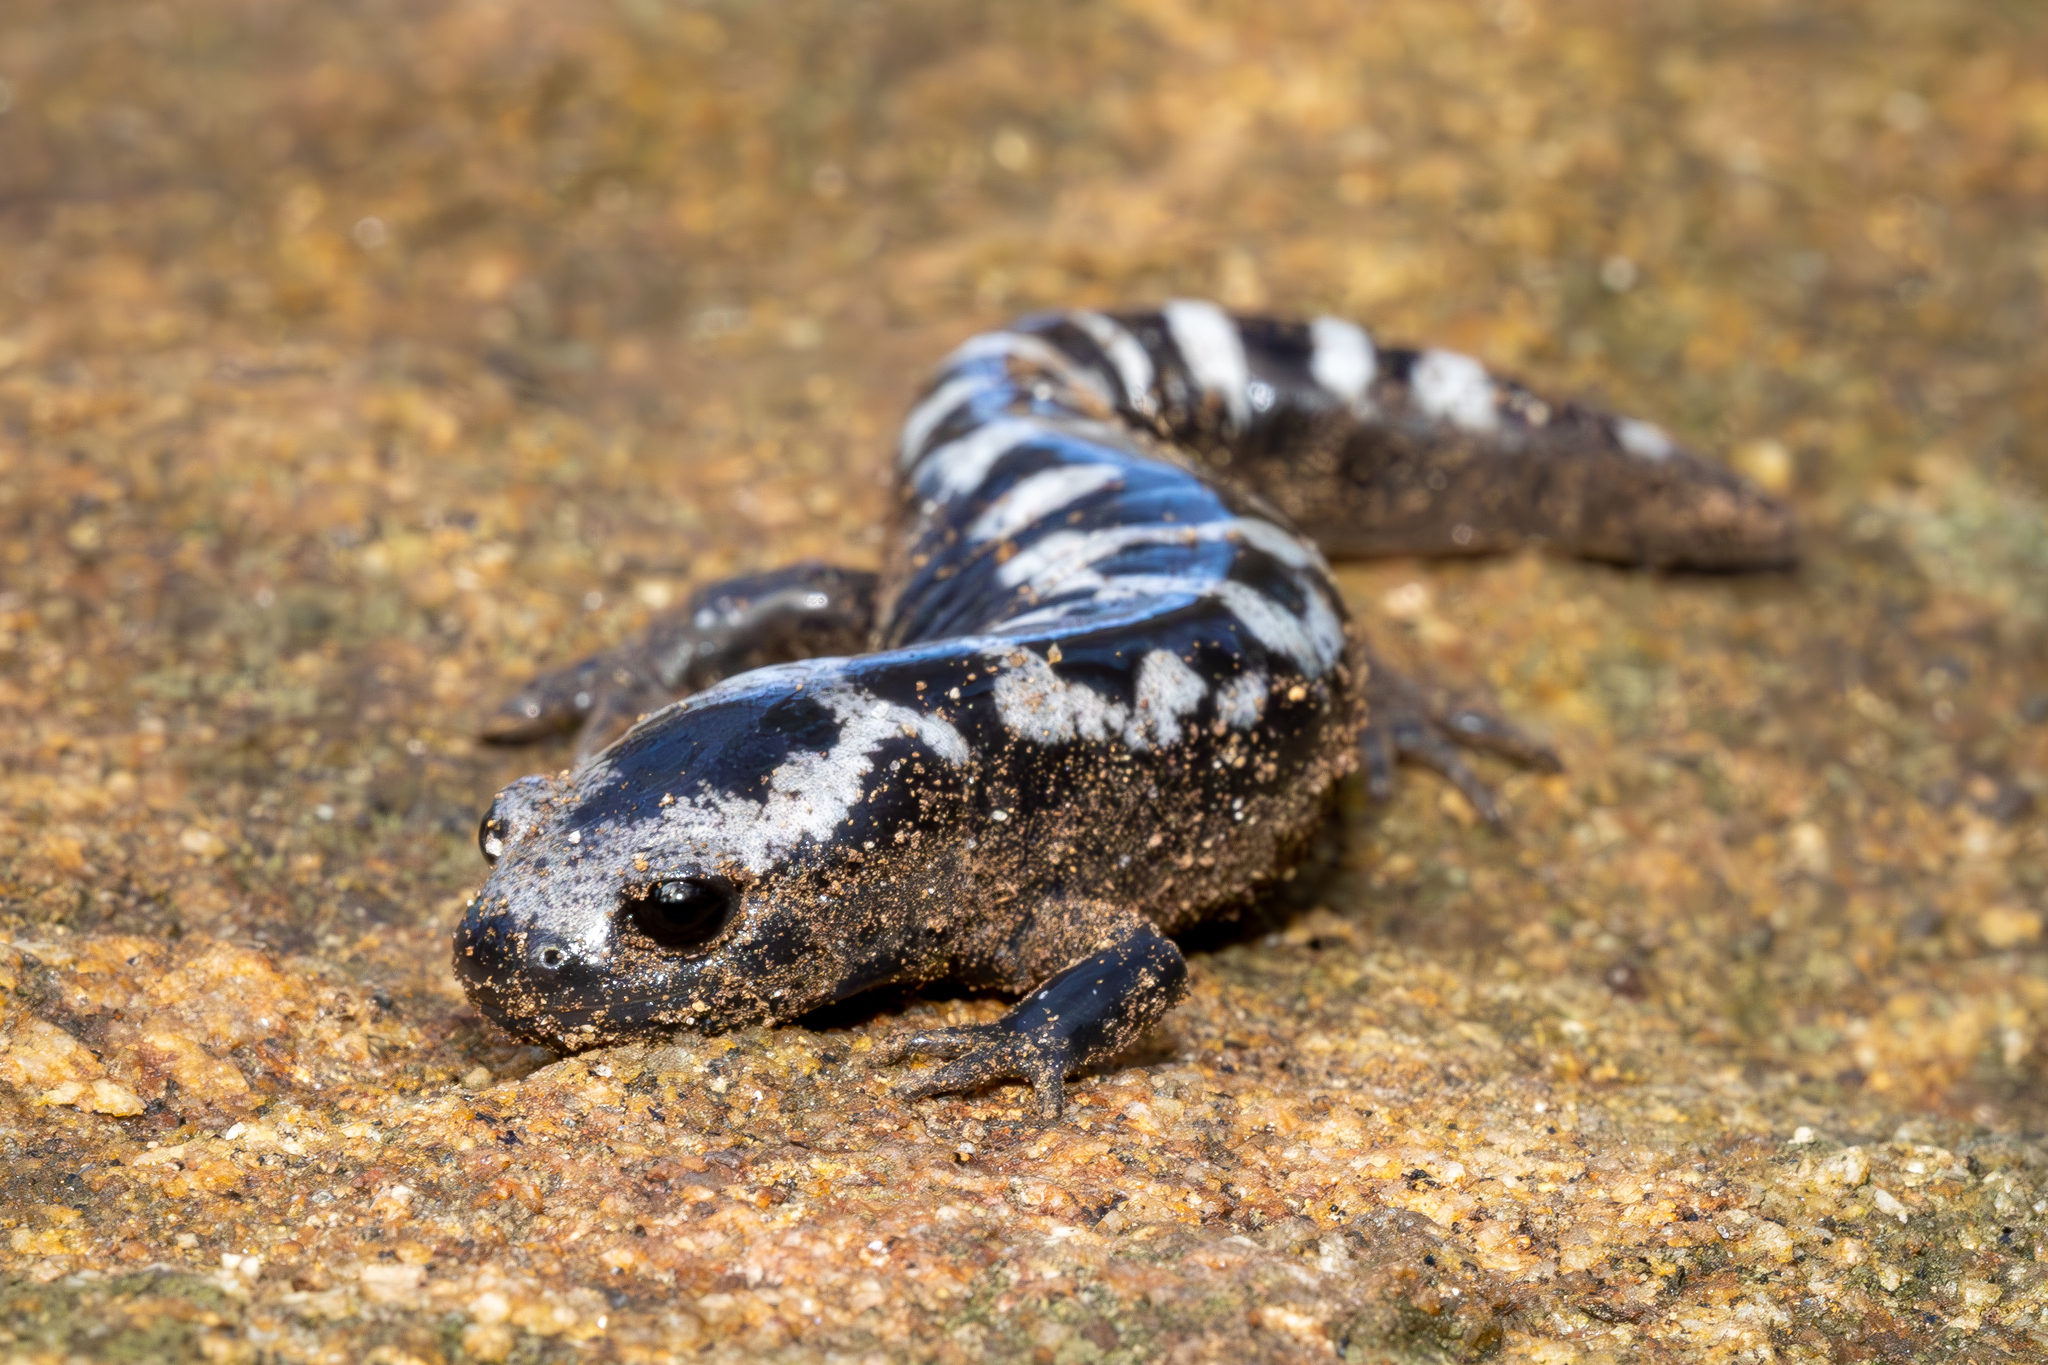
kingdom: Animalia
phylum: Chordata
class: Amphibia
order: Caudata
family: Ambystomatidae
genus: Ambystoma
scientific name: Ambystoma opacum
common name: Marbled salamander
